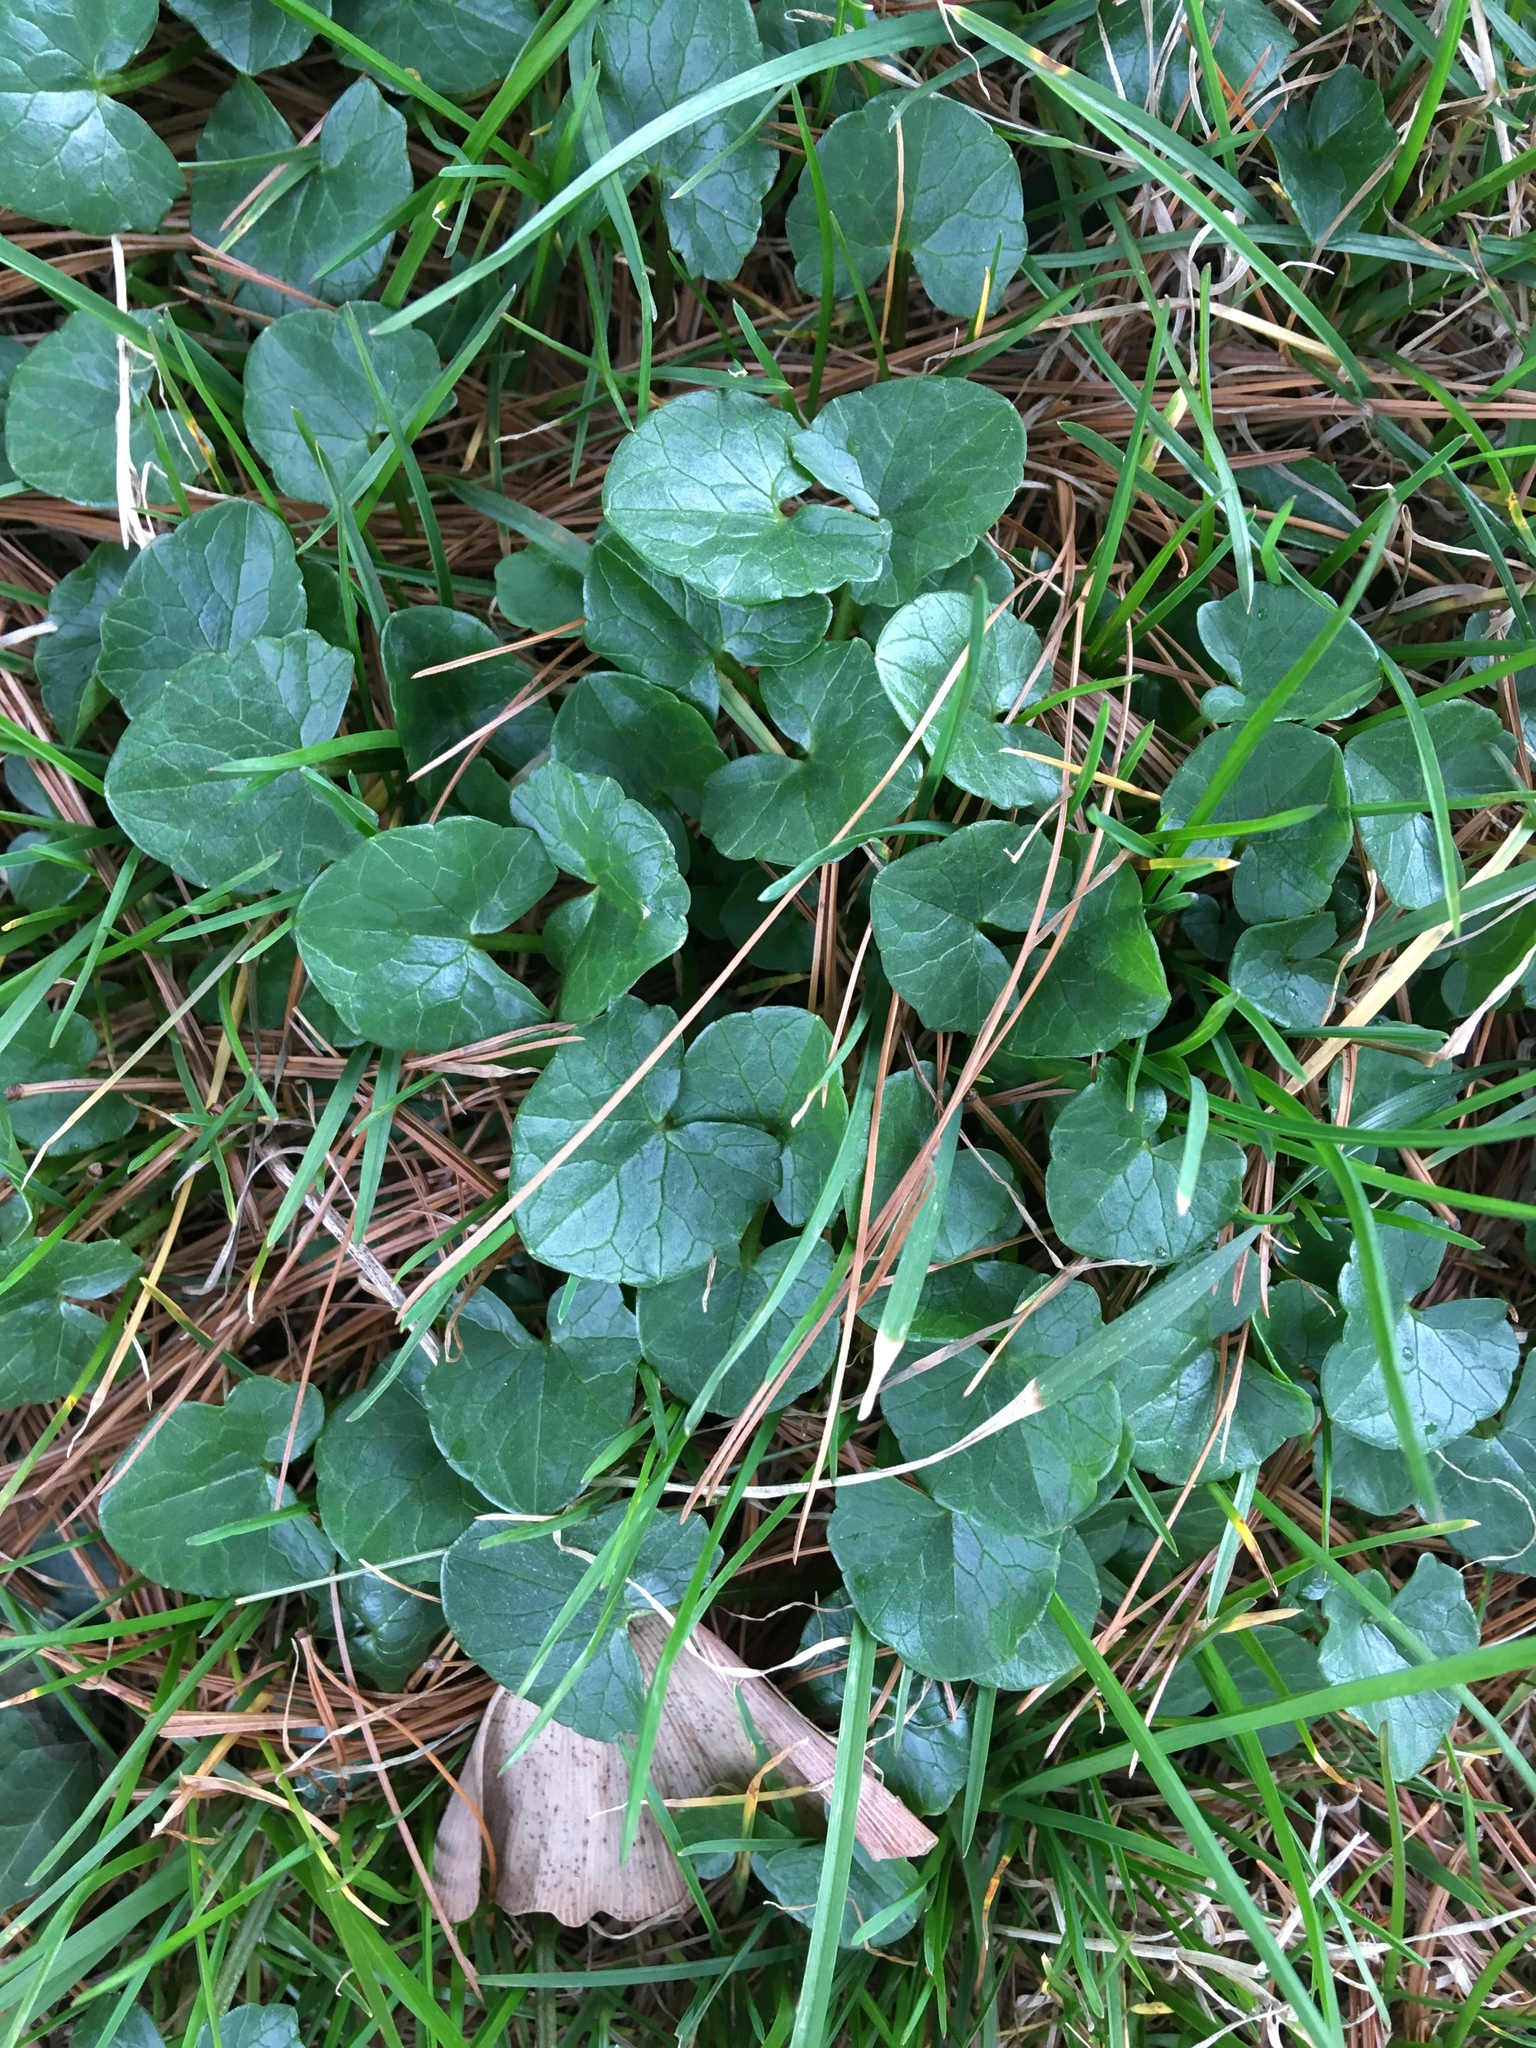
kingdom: Plantae
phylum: Tracheophyta
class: Magnoliopsida
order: Ranunculales
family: Ranunculaceae
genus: Ficaria
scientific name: Ficaria verna
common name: Lesser celandine
